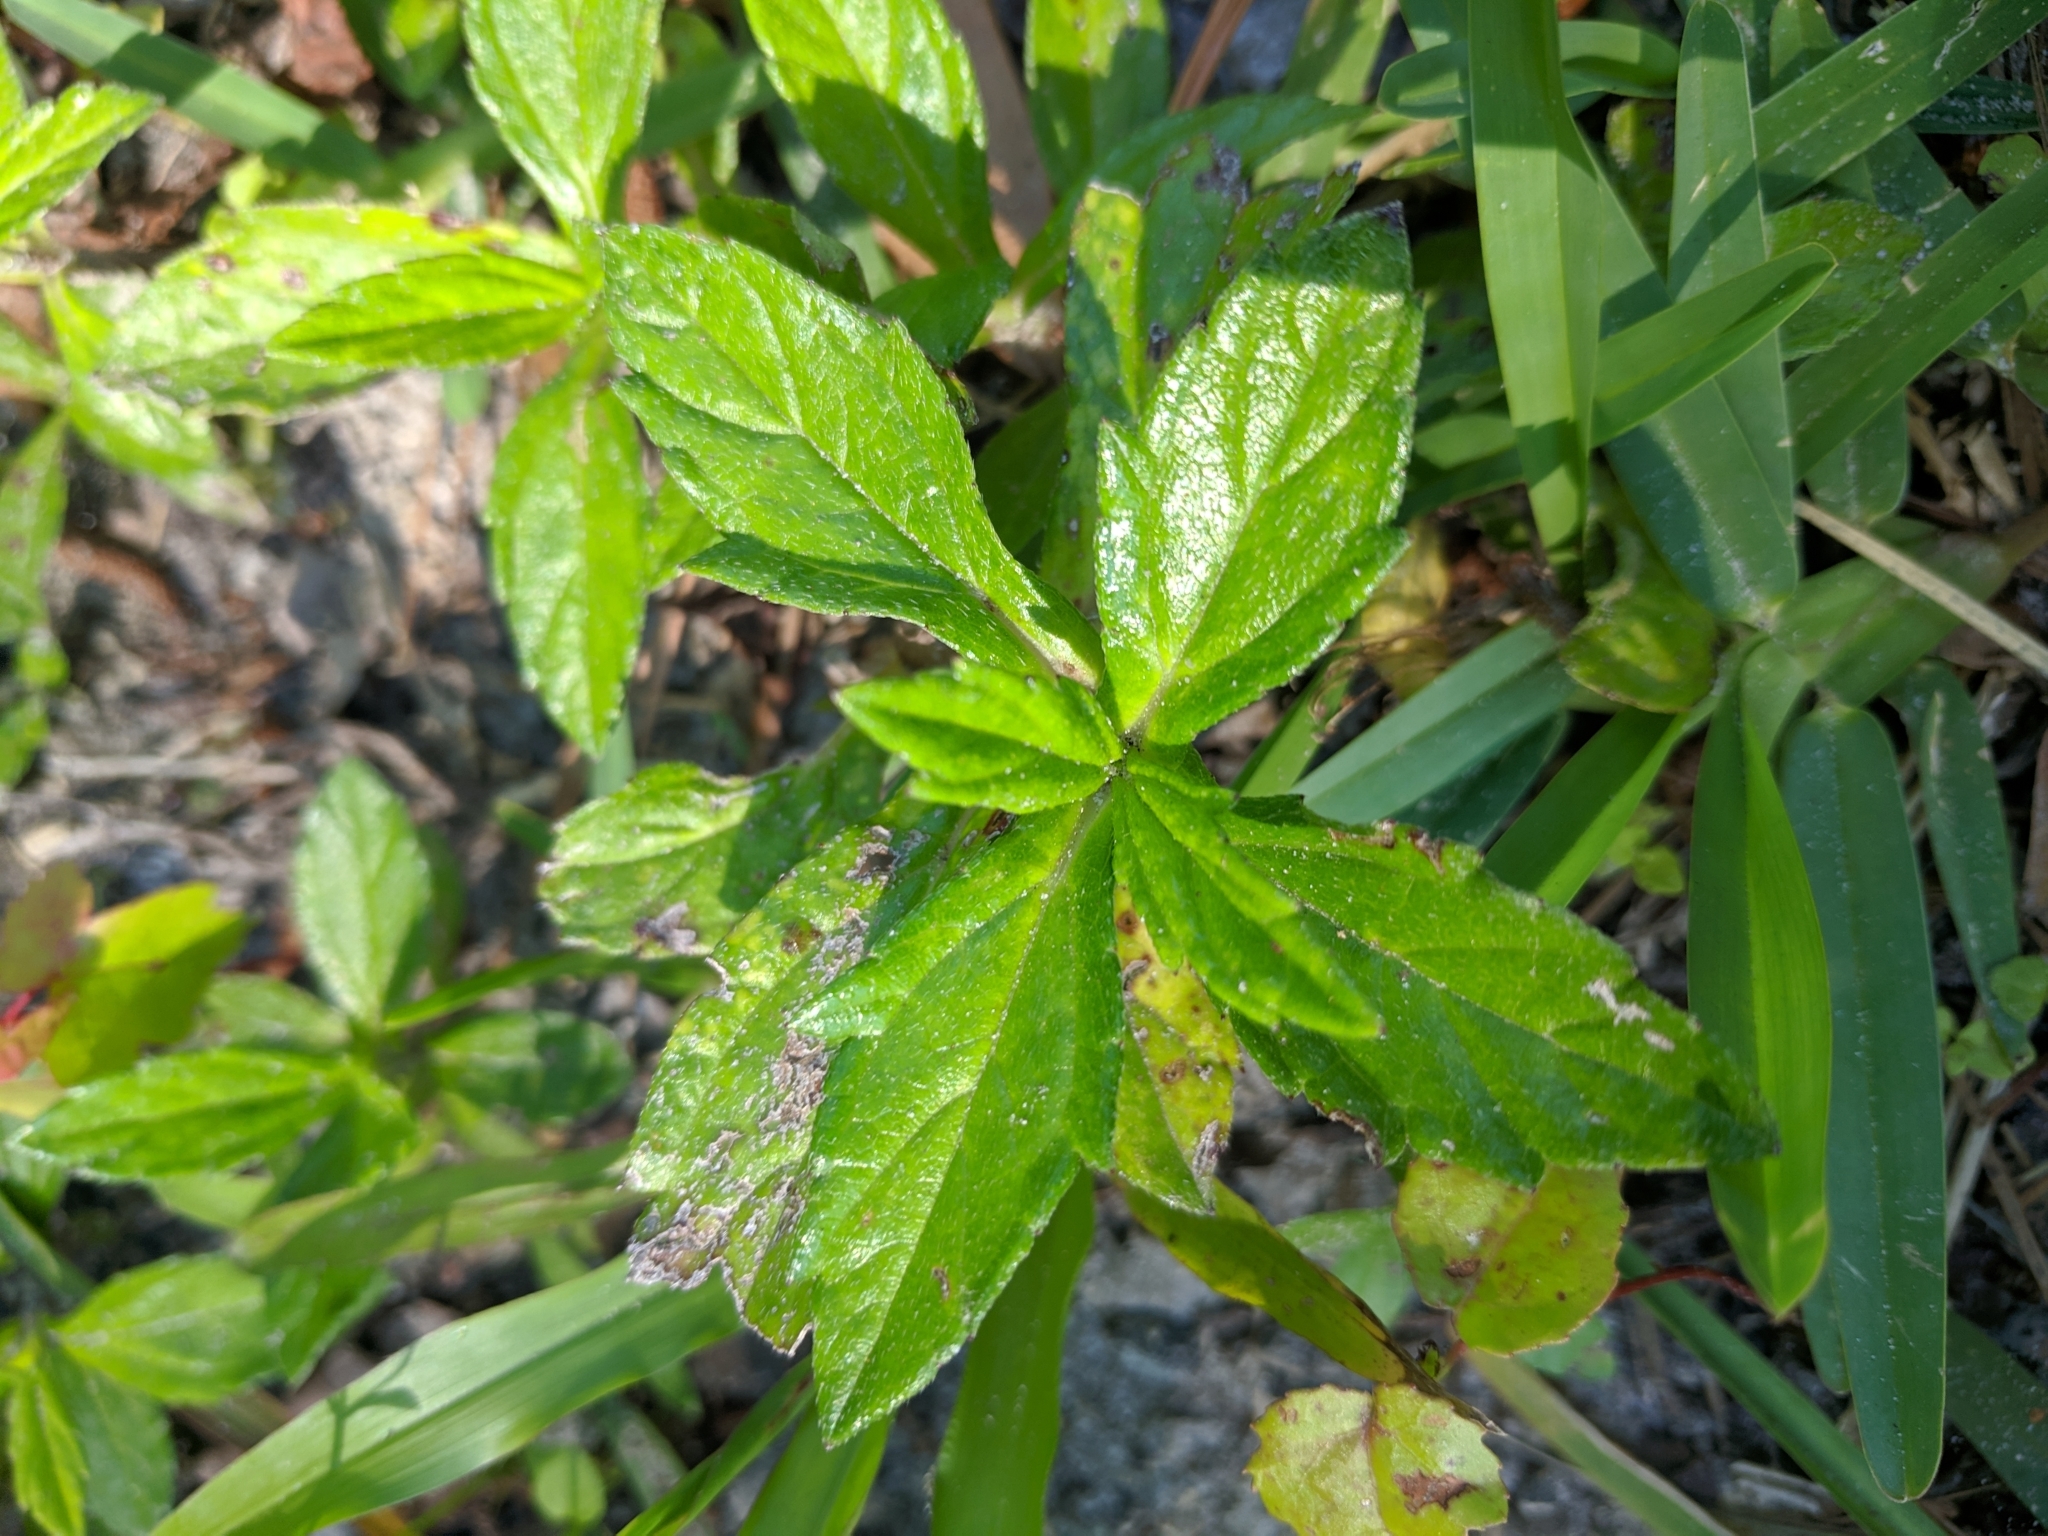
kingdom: Plantae
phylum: Tracheophyta
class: Magnoliopsida
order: Asterales
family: Asteraceae
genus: Sphagneticola
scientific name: Sphagneticola trilobata
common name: Bay biscayne creeping-oxeye
